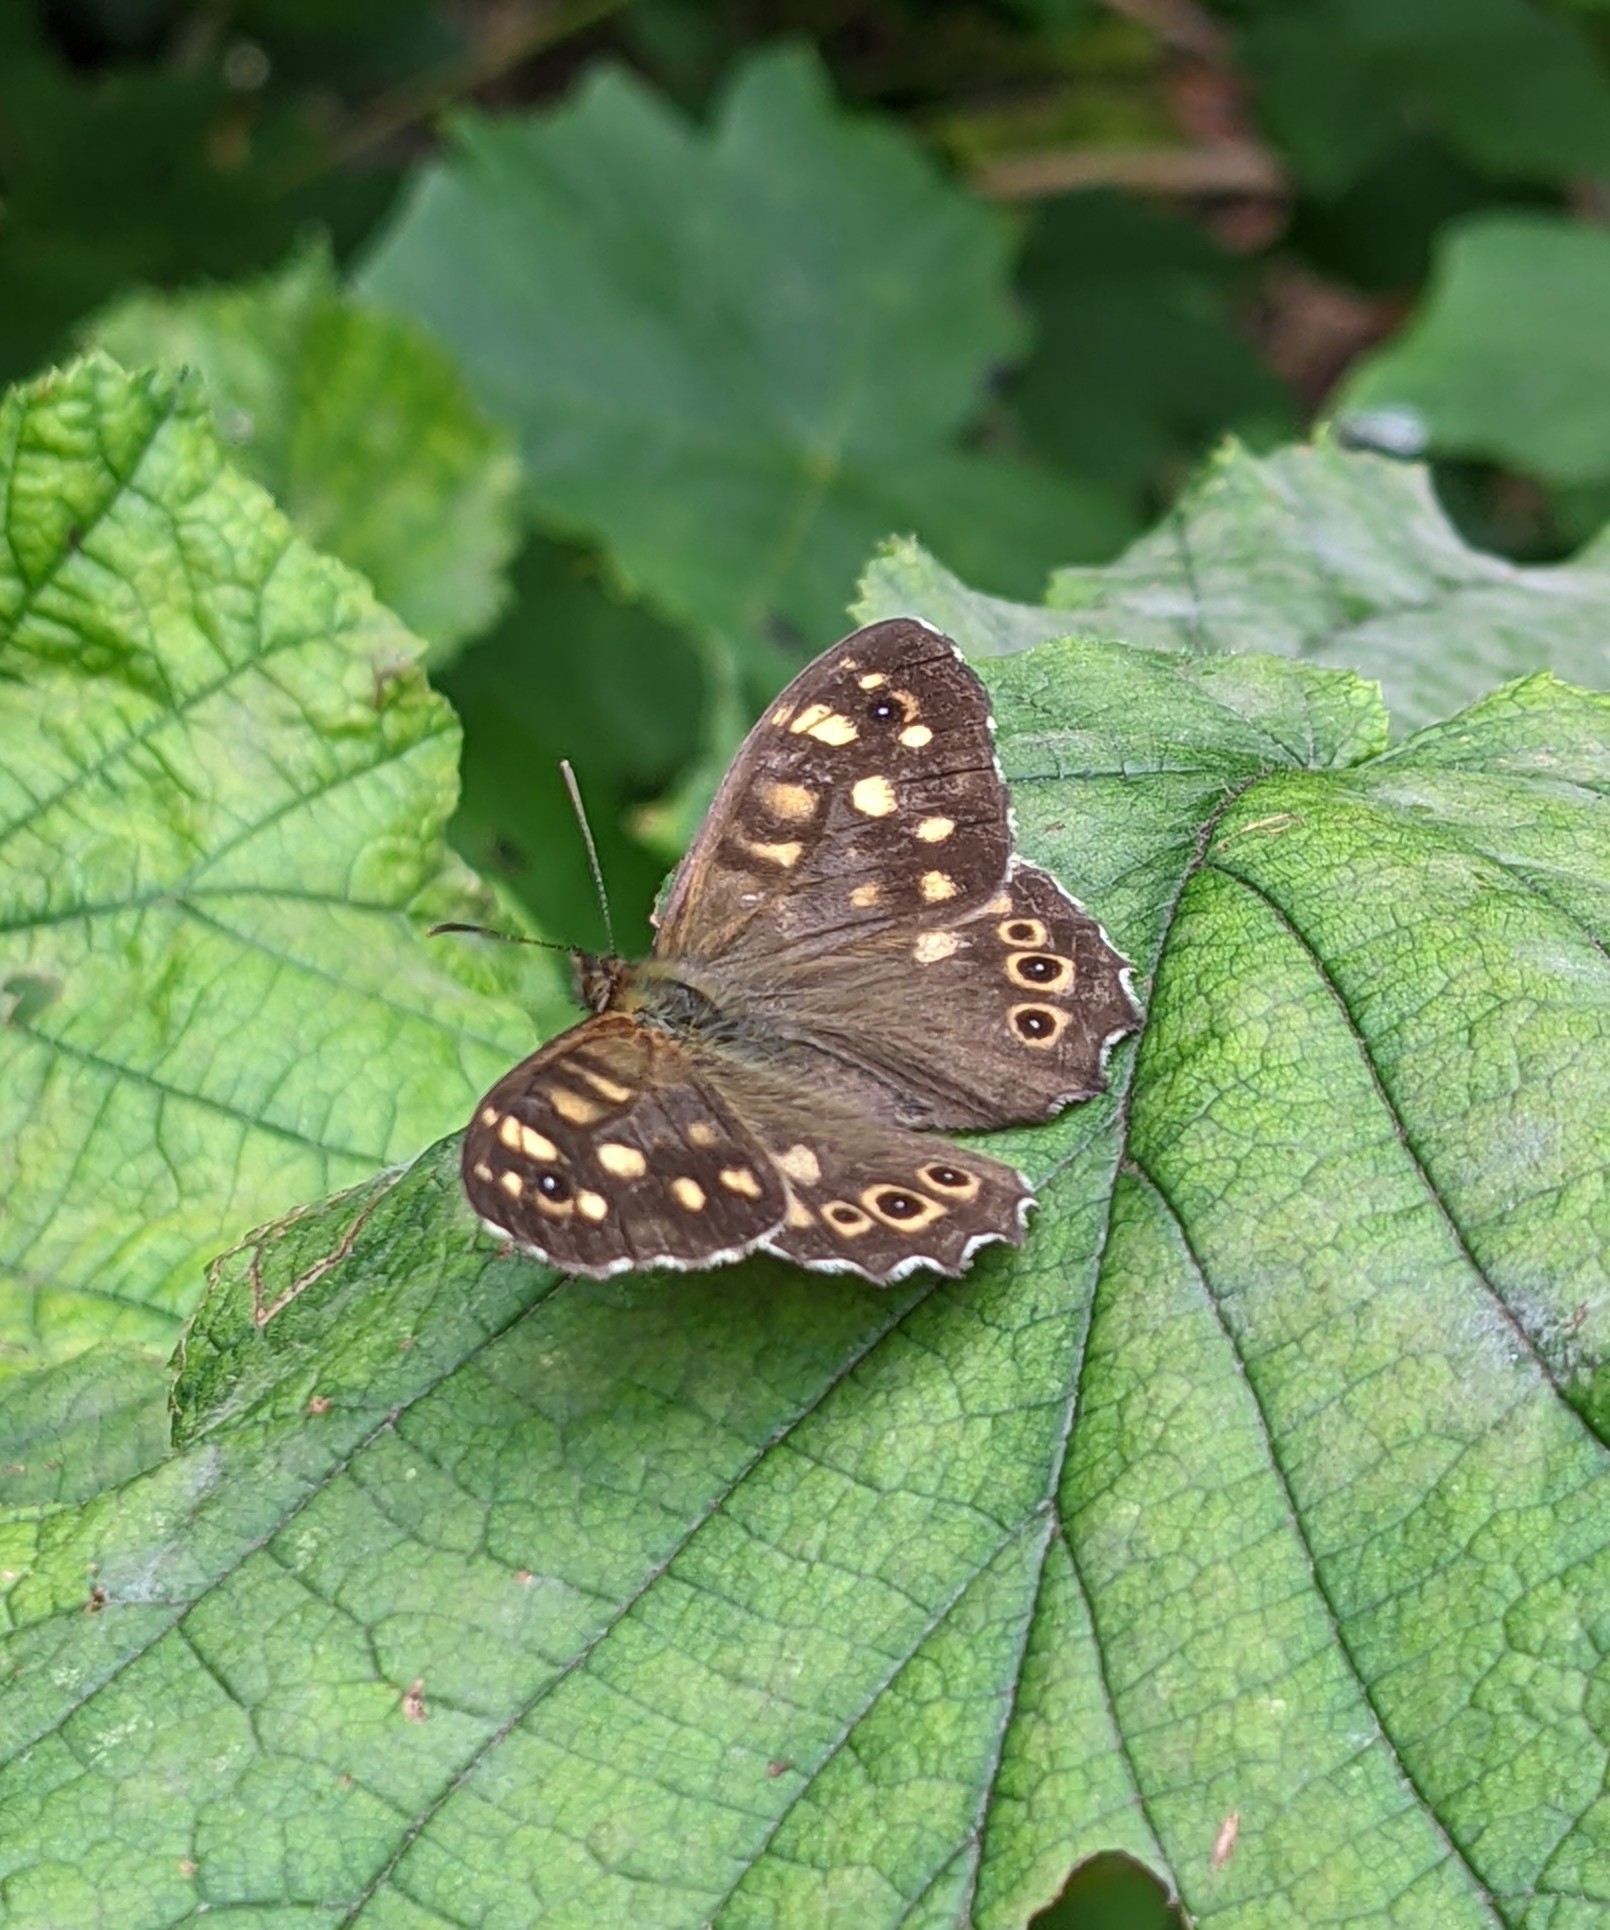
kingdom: Animalia
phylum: Arthropoda
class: Insecta
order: Lepidoptera
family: Nymphalidae
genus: Pararge
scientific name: Pararge aegeria
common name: Speckled wood
